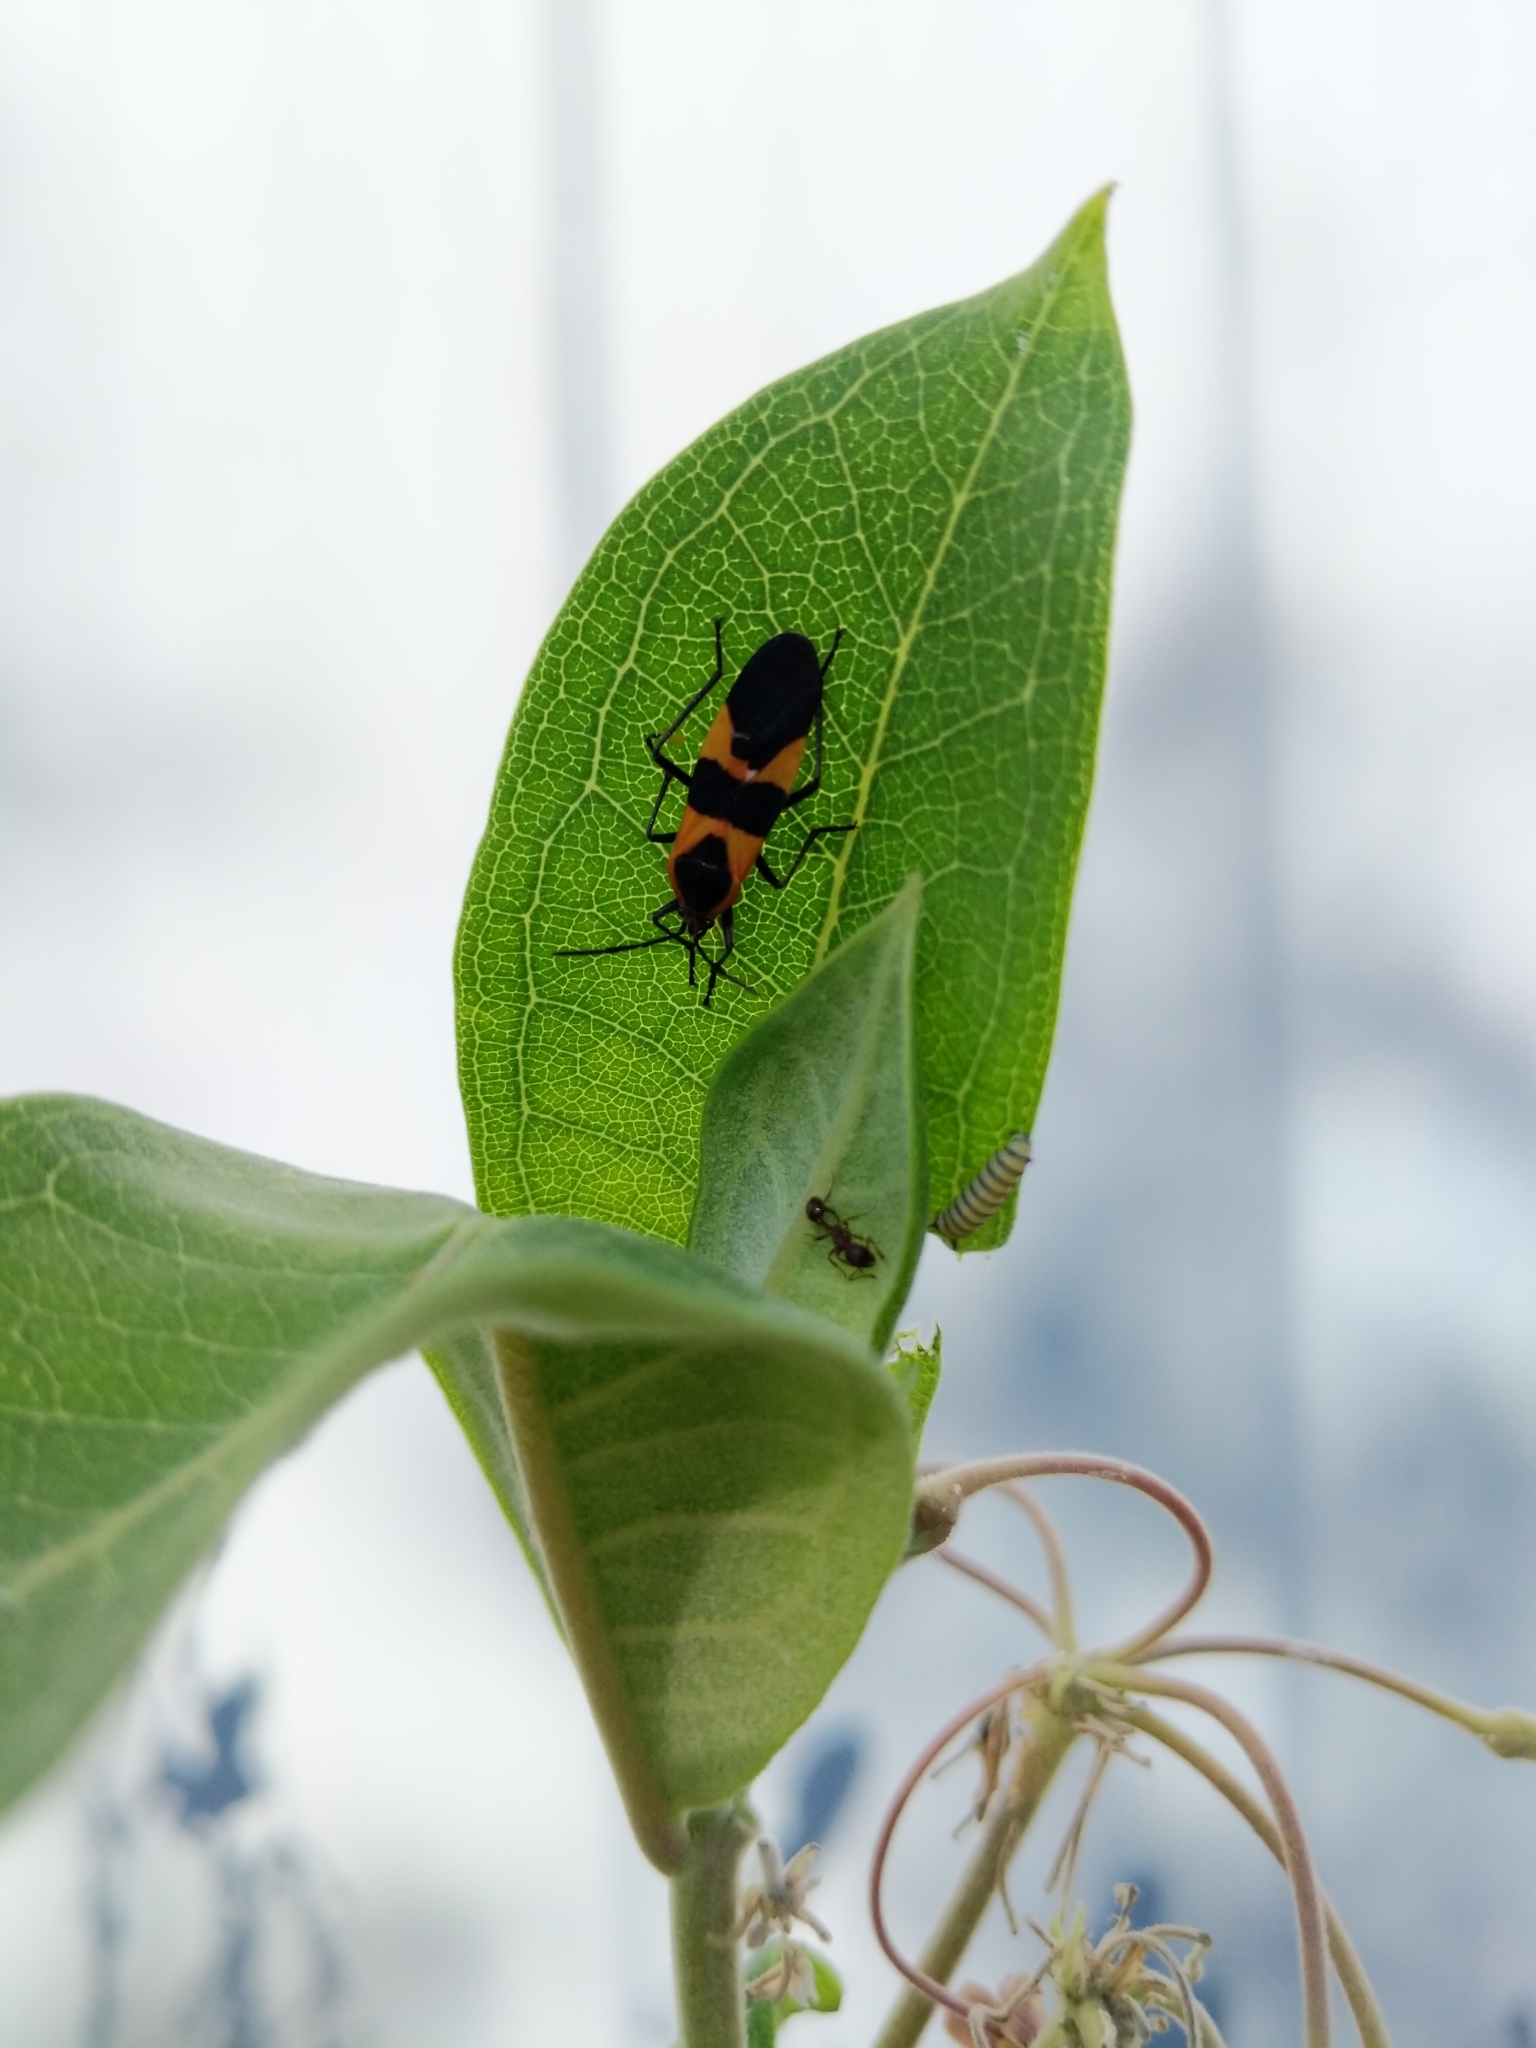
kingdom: Animalia
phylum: Arthropoda
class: Insecta
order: Hemiptera
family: Lygaeidae
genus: Oncopeltus
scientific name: Oncopeltus fasciatus
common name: Large milkweed bug
